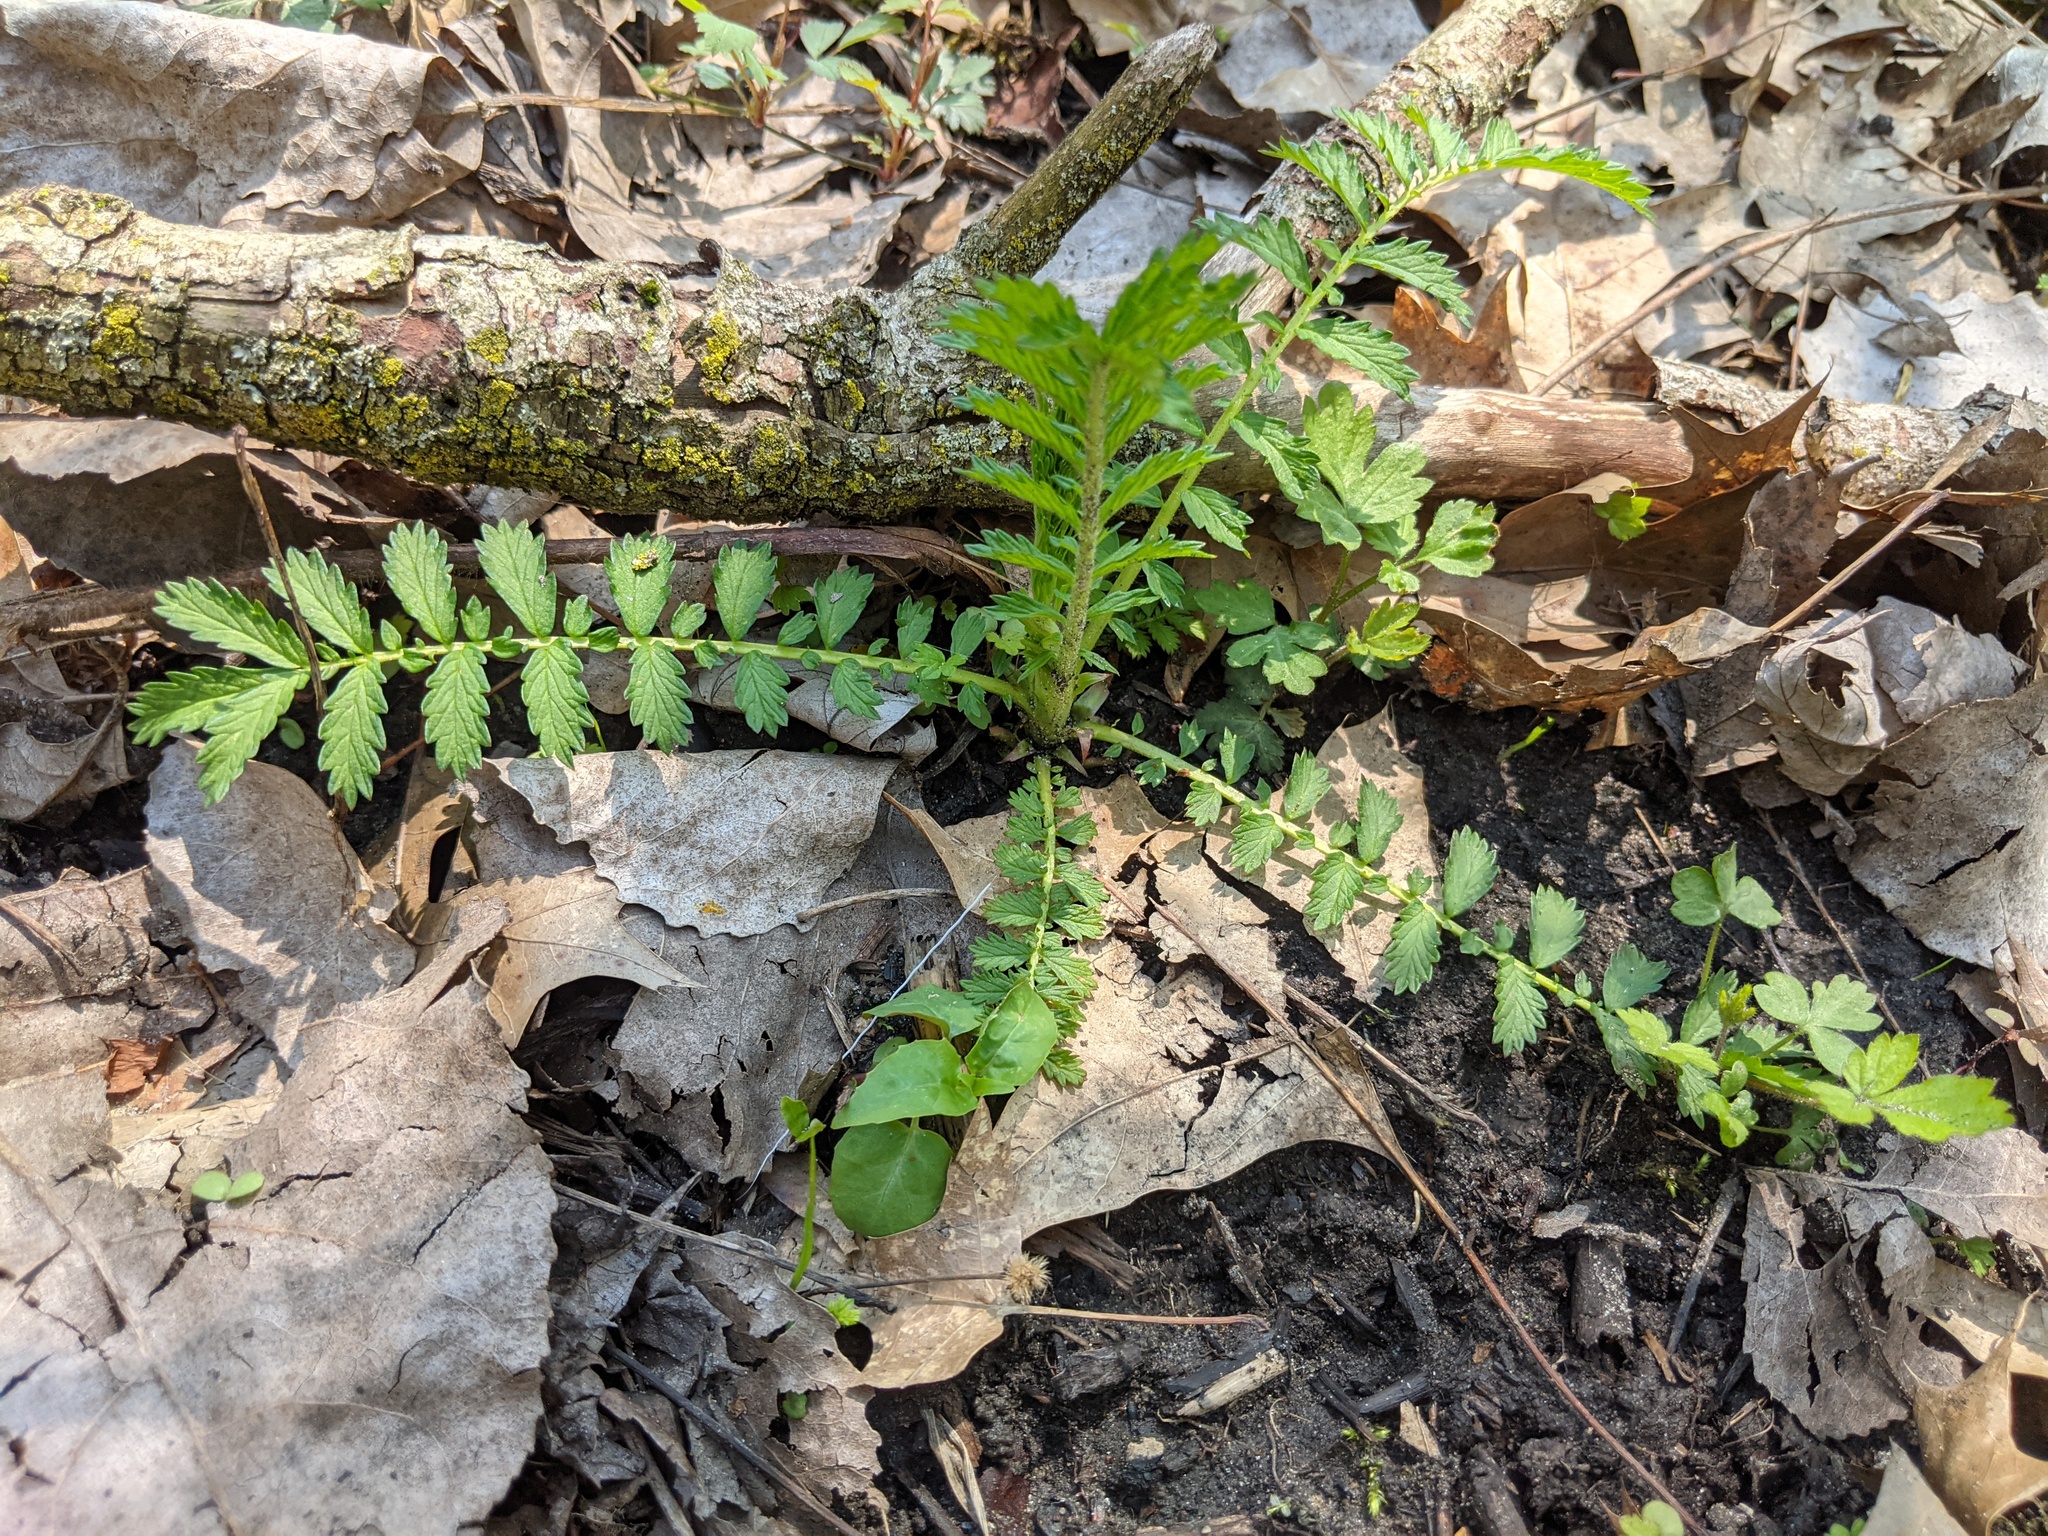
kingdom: Plantae
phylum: Tracheophyta
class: Magnoliopsida
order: Rosales
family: Rosaceae
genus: Agrimonia
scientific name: Agrimonia parviflora
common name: Harvest-lice
